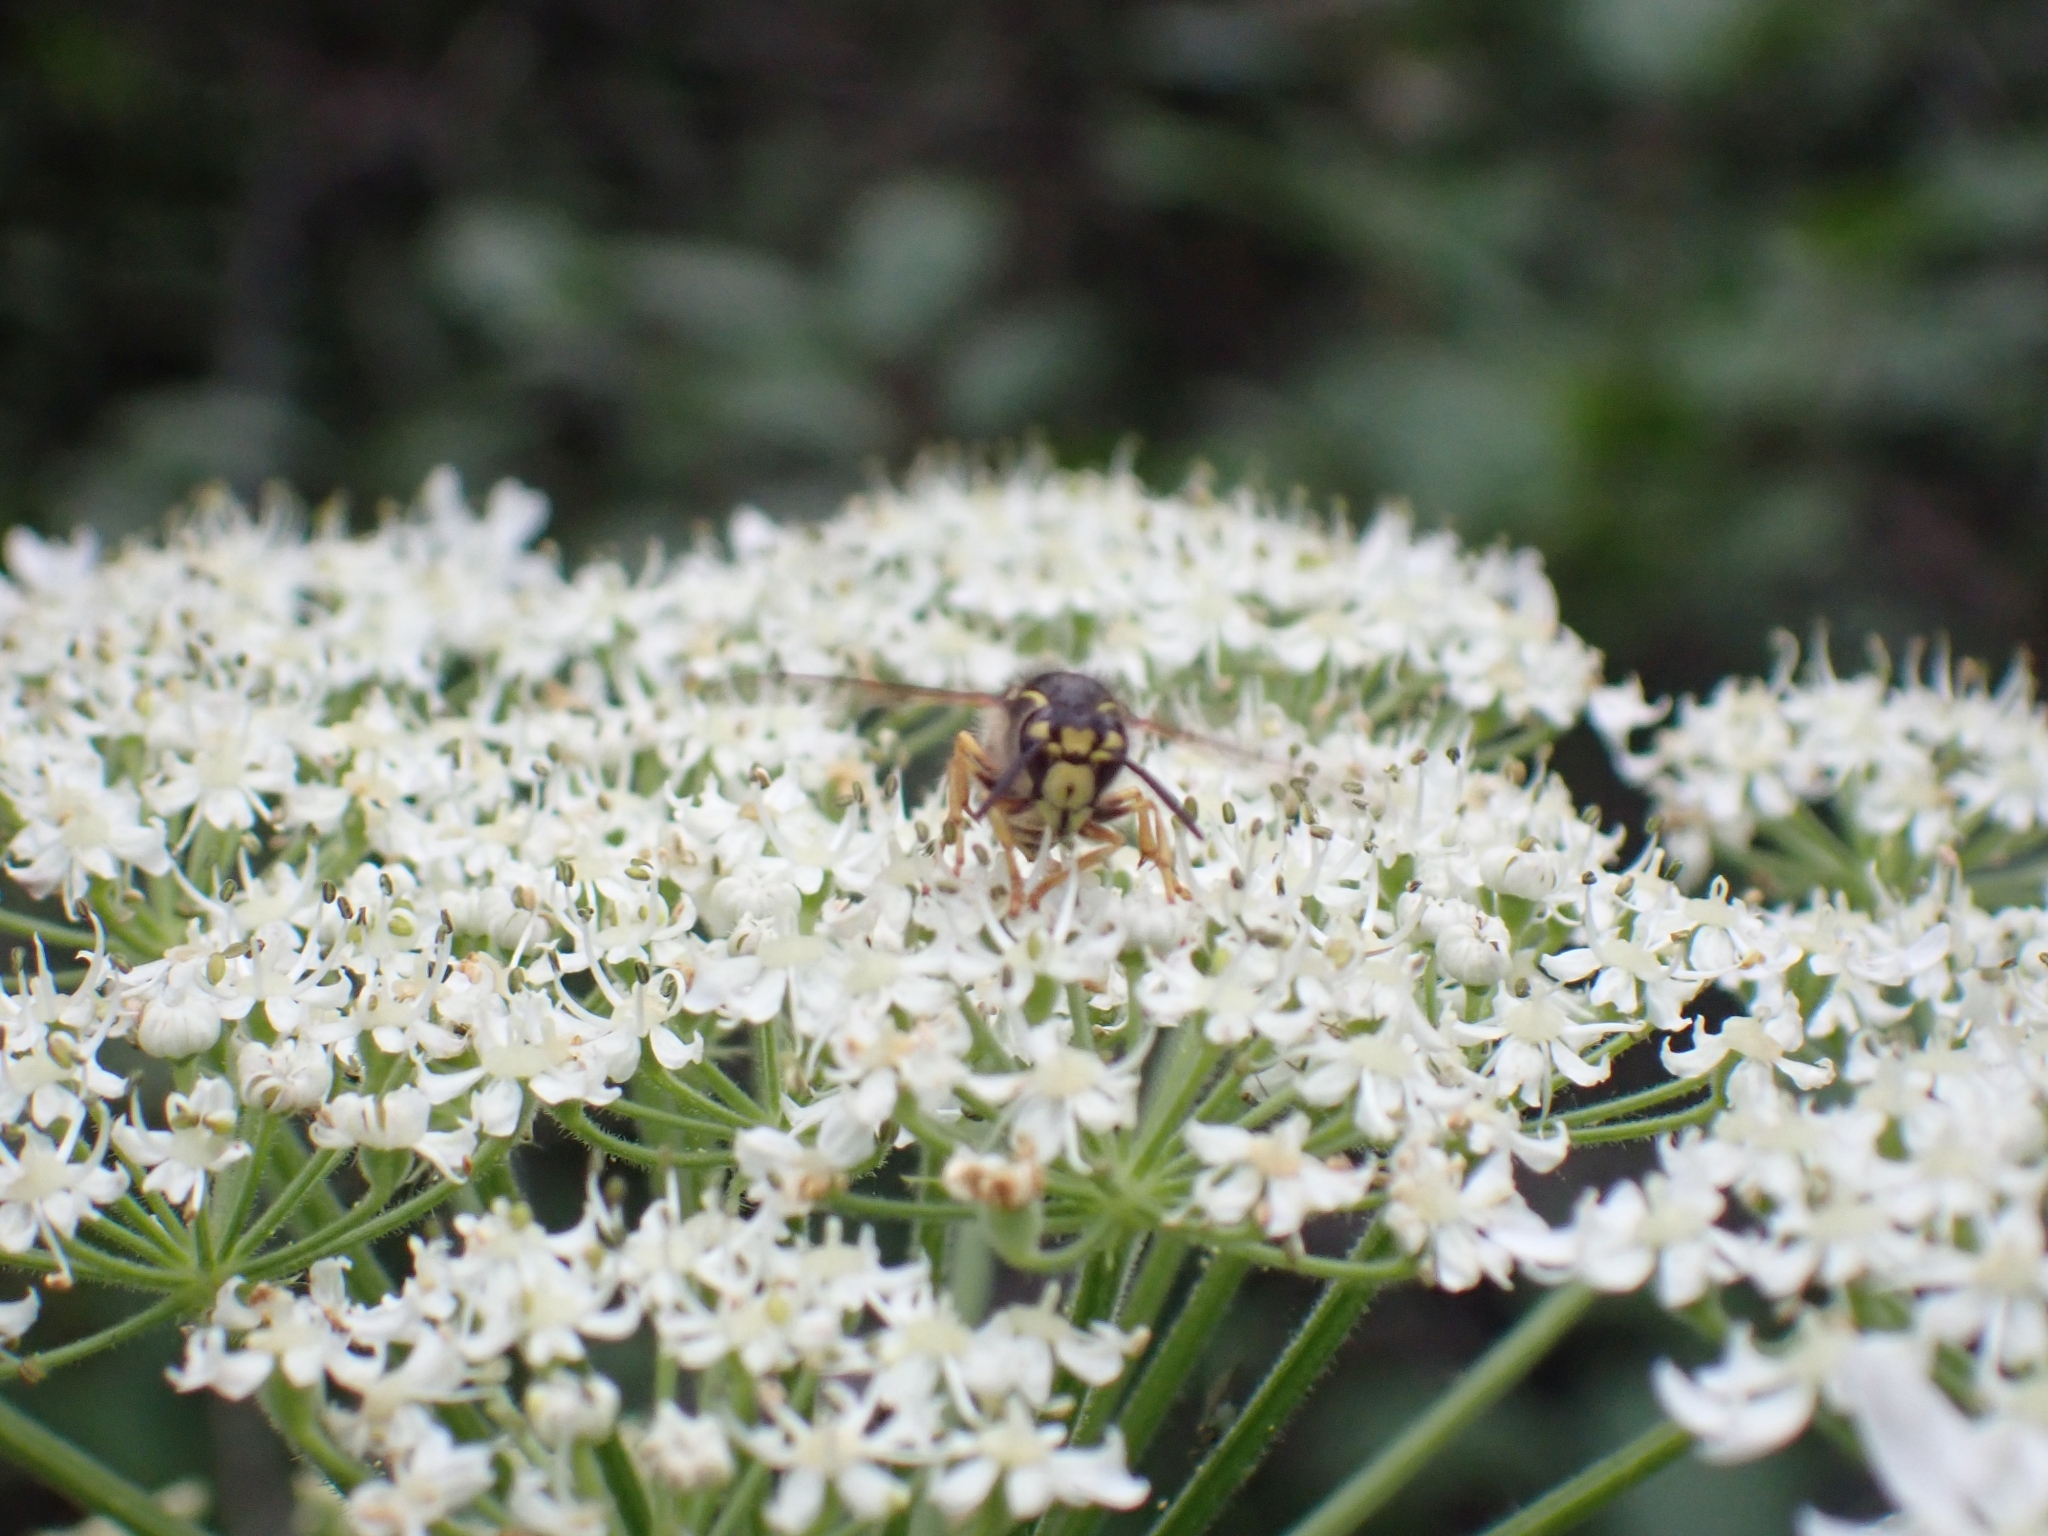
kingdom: Animalia
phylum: Arthropoda
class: Insecta
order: Hymenoptera
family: Vespidae
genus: Dolichovespula
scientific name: Dolichovespula arenaria
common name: Aerial yellowjacket
